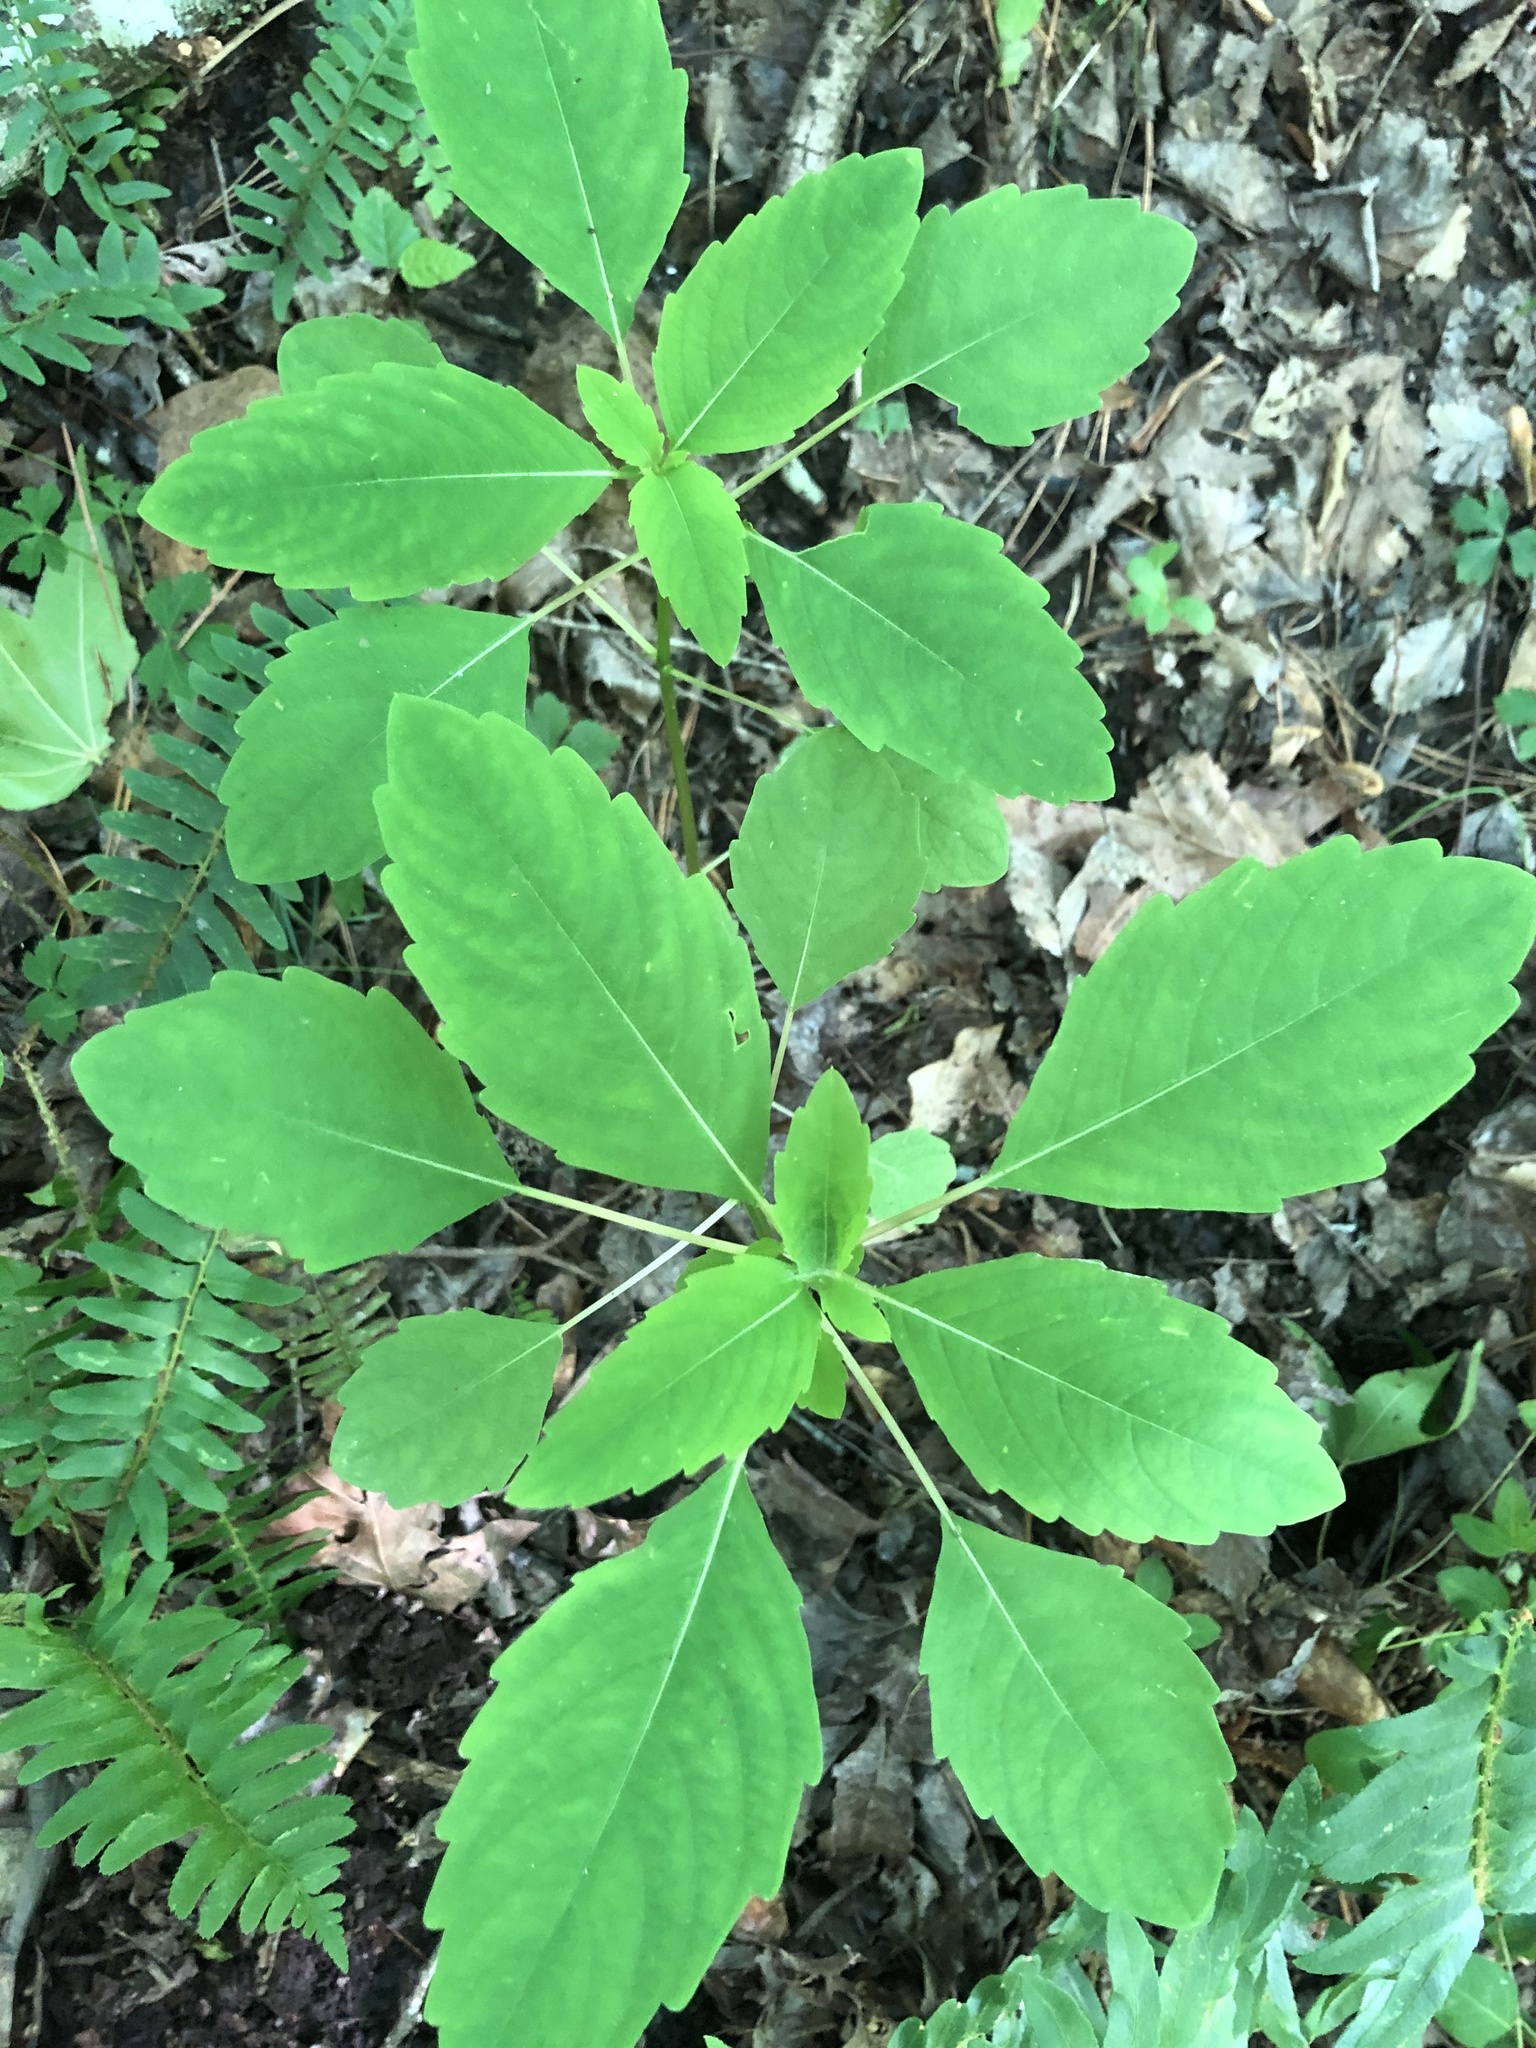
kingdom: Plantae
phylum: Tracheophyta
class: Magnoliopsida
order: Ericales
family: Balsaminaceae
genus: Impatiens
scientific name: Impatiens capensis
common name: Orange balsam
